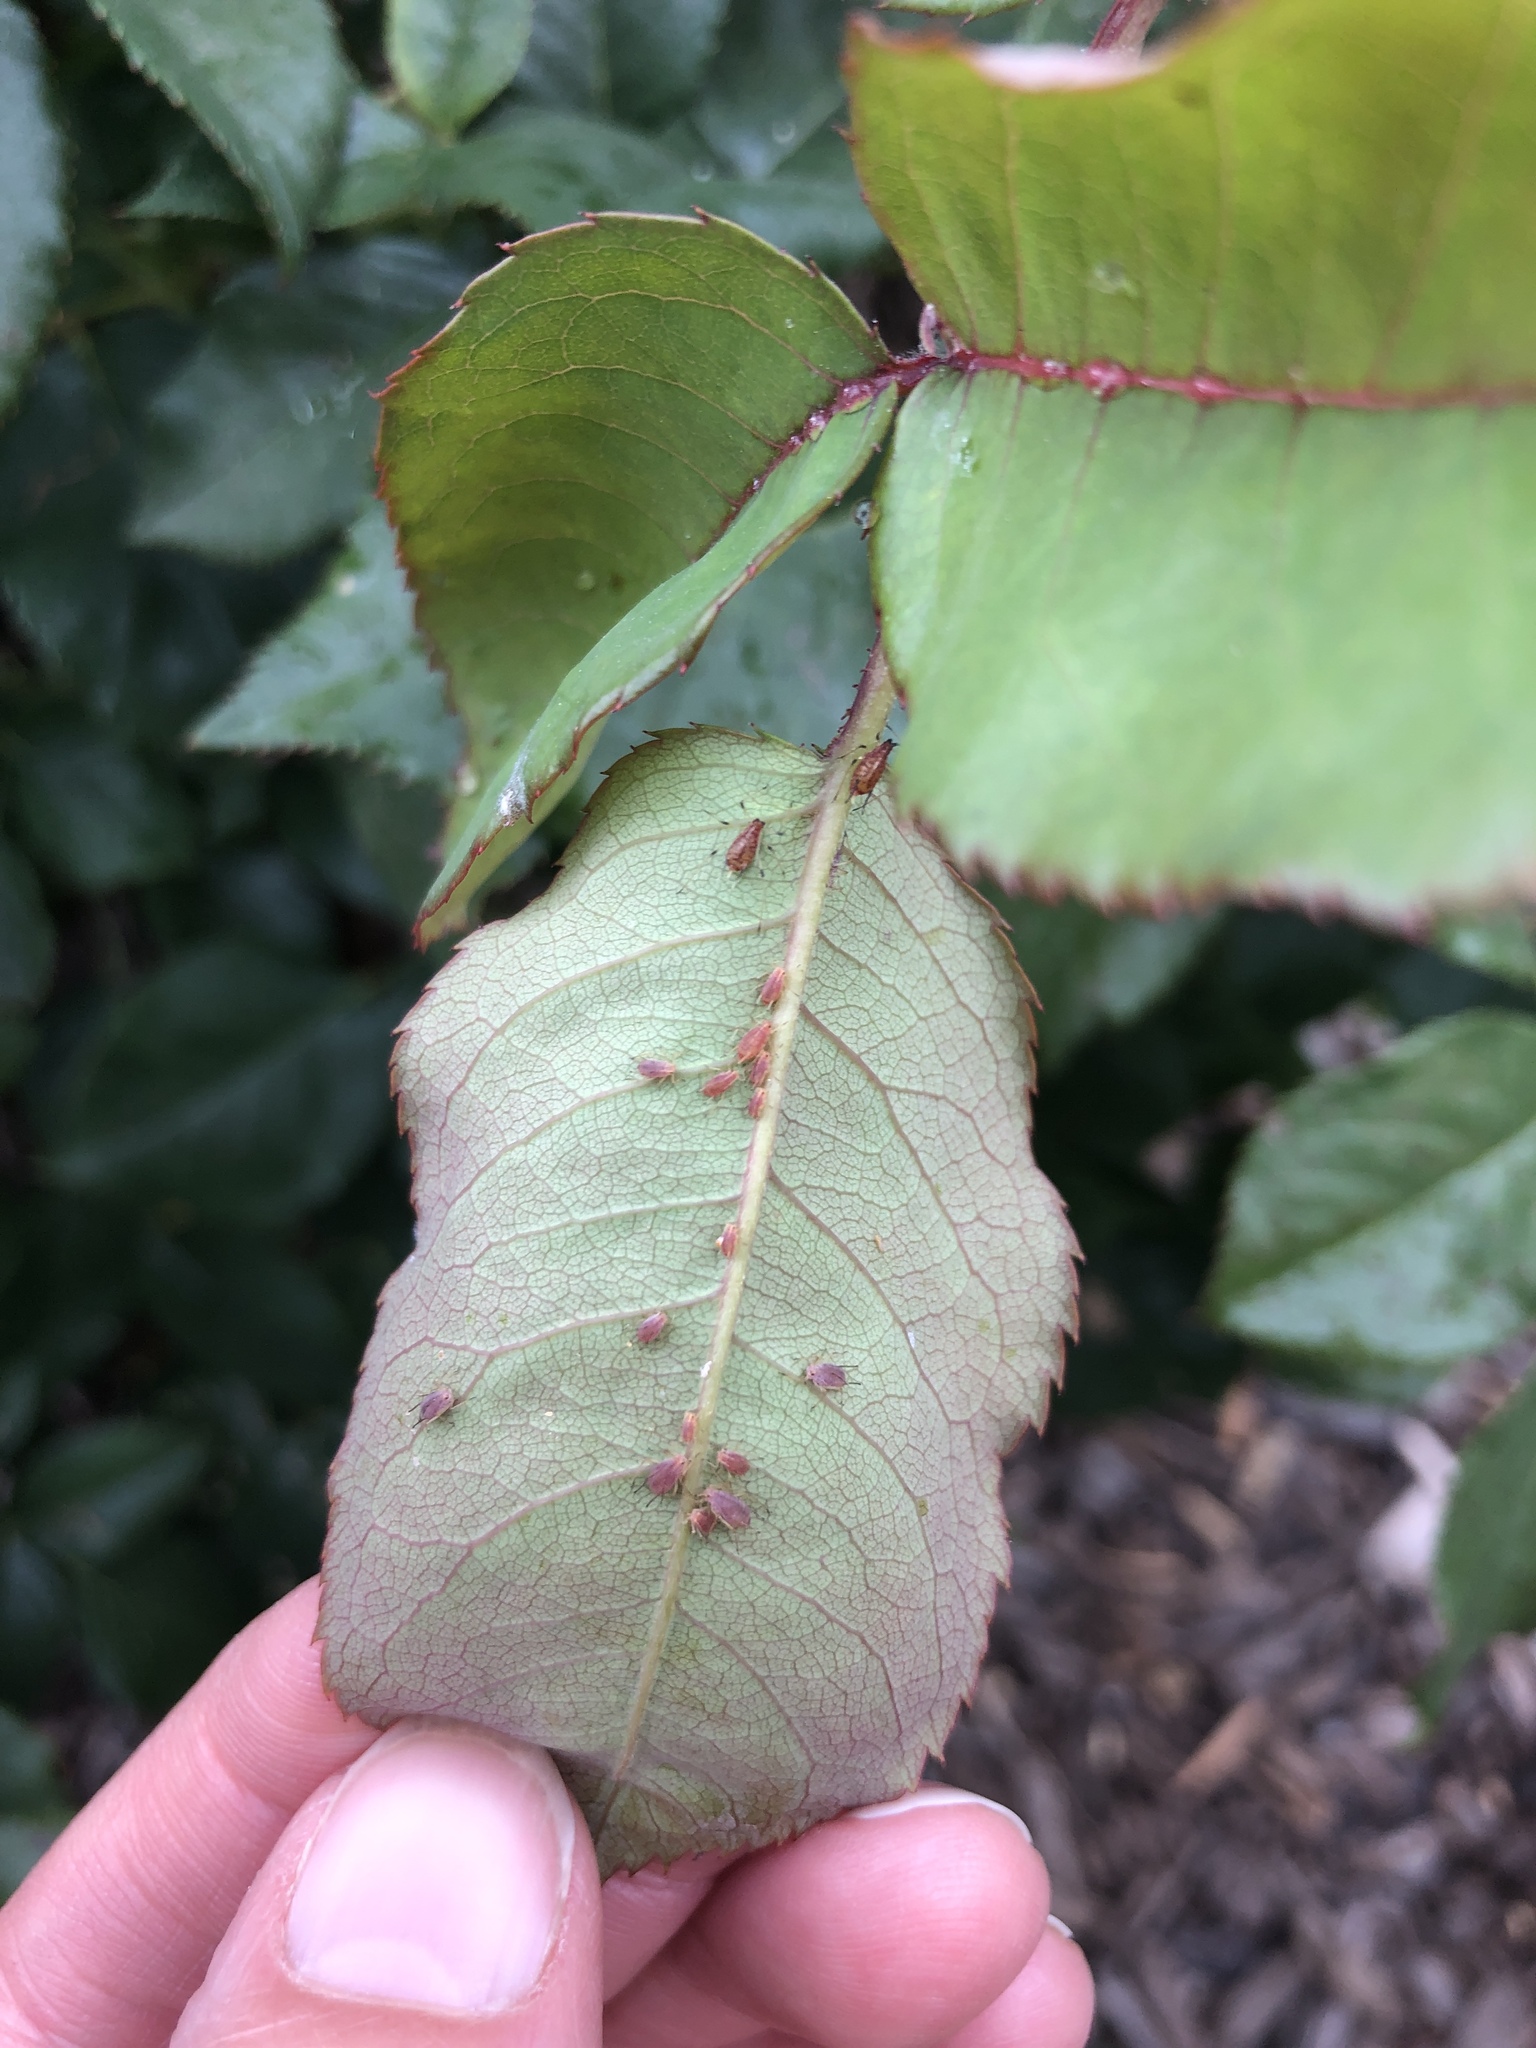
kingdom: Animalia
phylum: Arthropoda
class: Insecta
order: Hemiptera
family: Aphididae
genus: Macrosiphum
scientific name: Macrosiphum rosae
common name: Rose aphid
